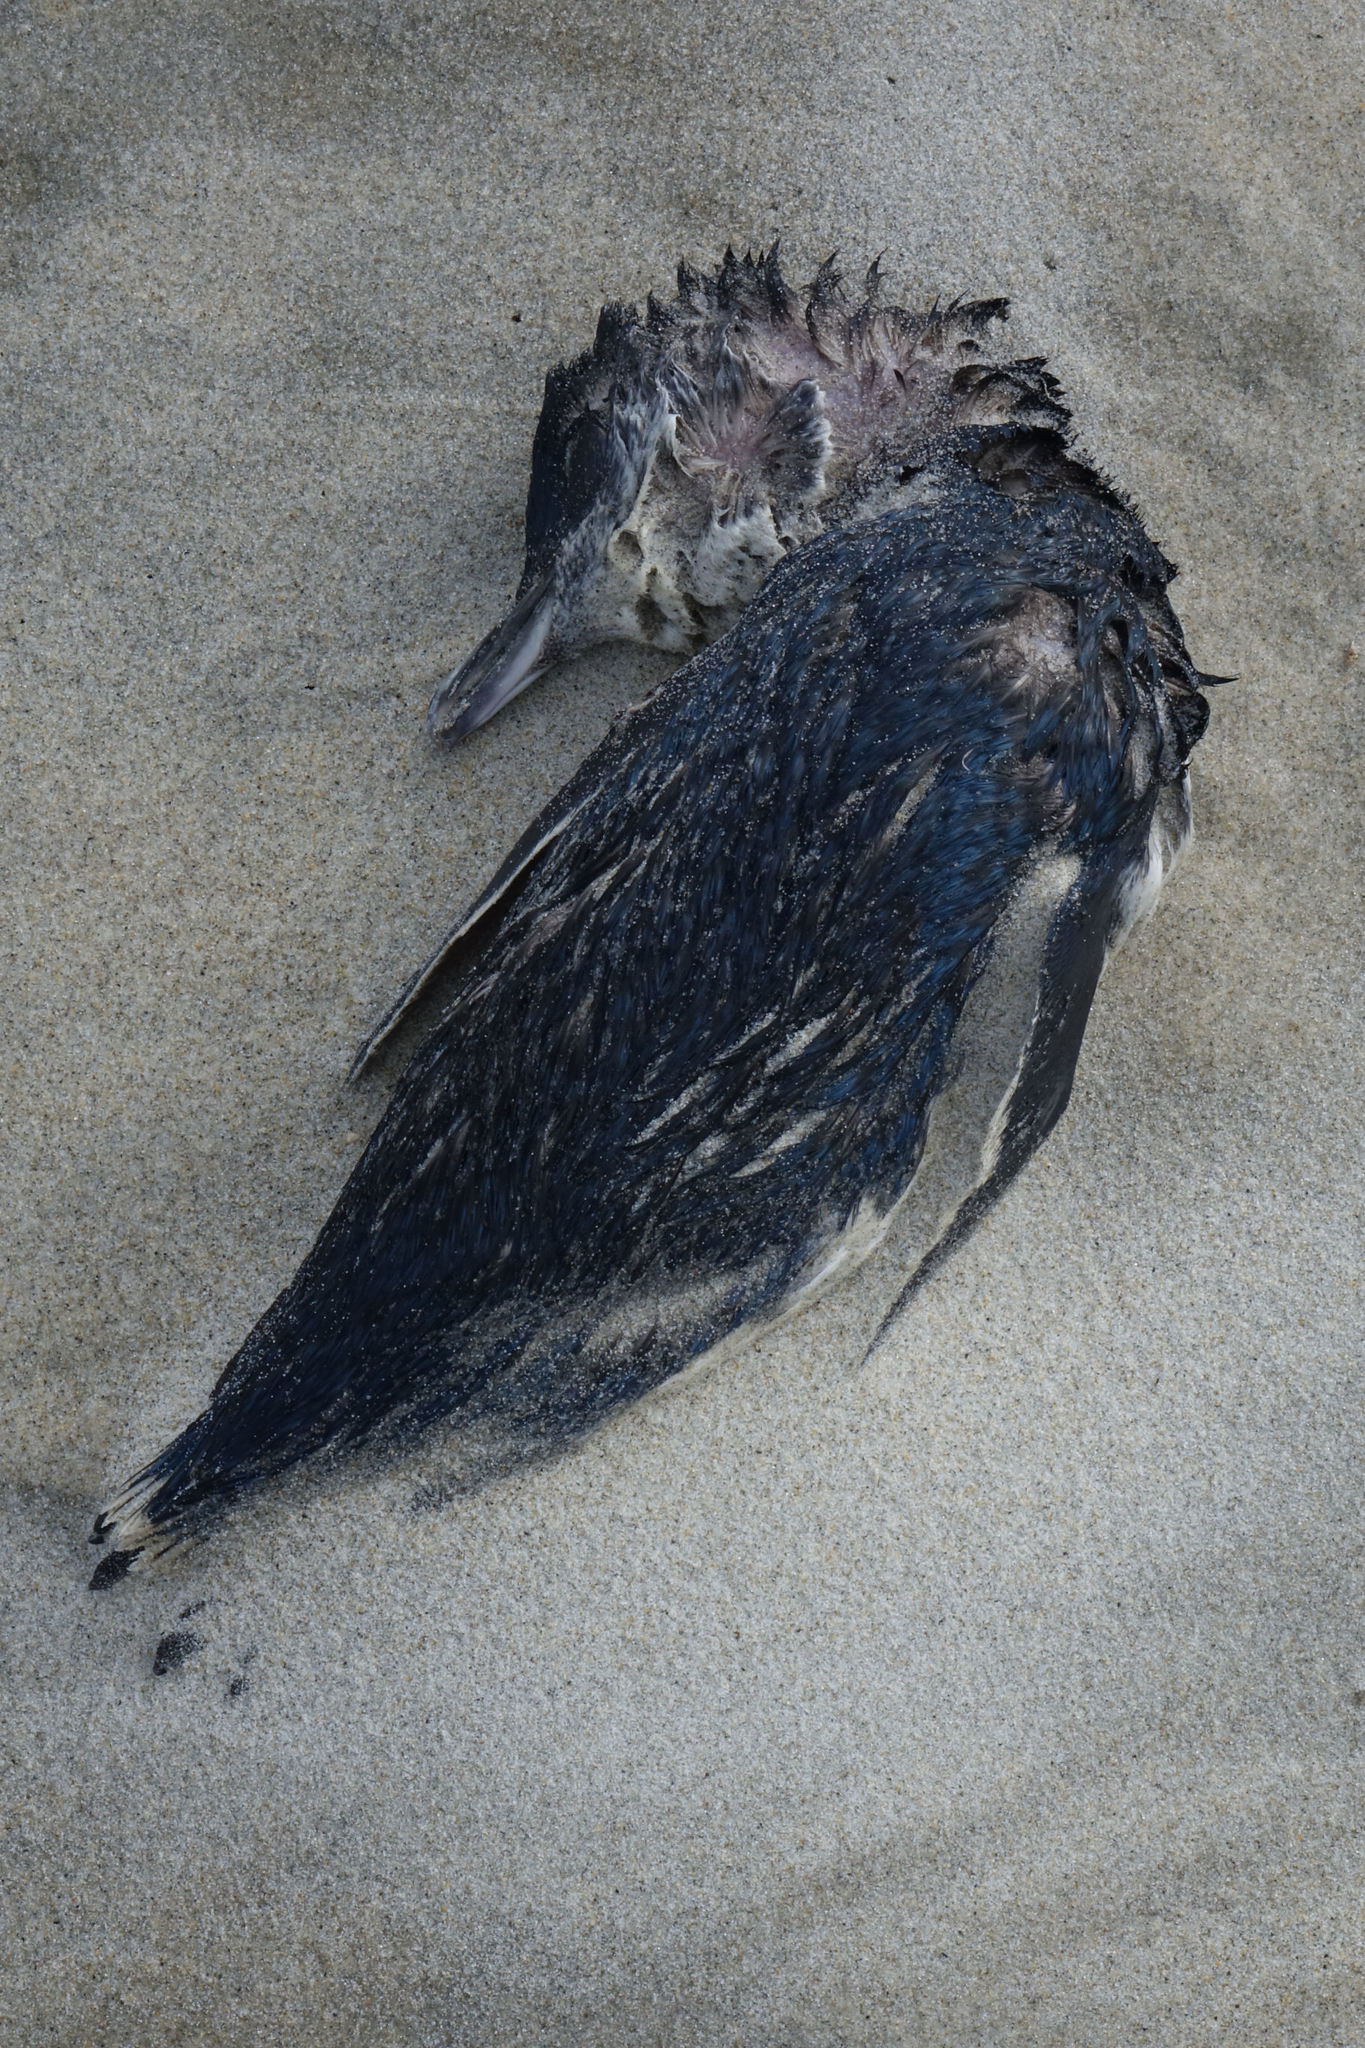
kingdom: Animalia
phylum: Chordata
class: Aves
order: Sphenisciformes
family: Spheniscidae
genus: Eudyptula
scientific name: Eudyptula minor
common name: Little penguin
